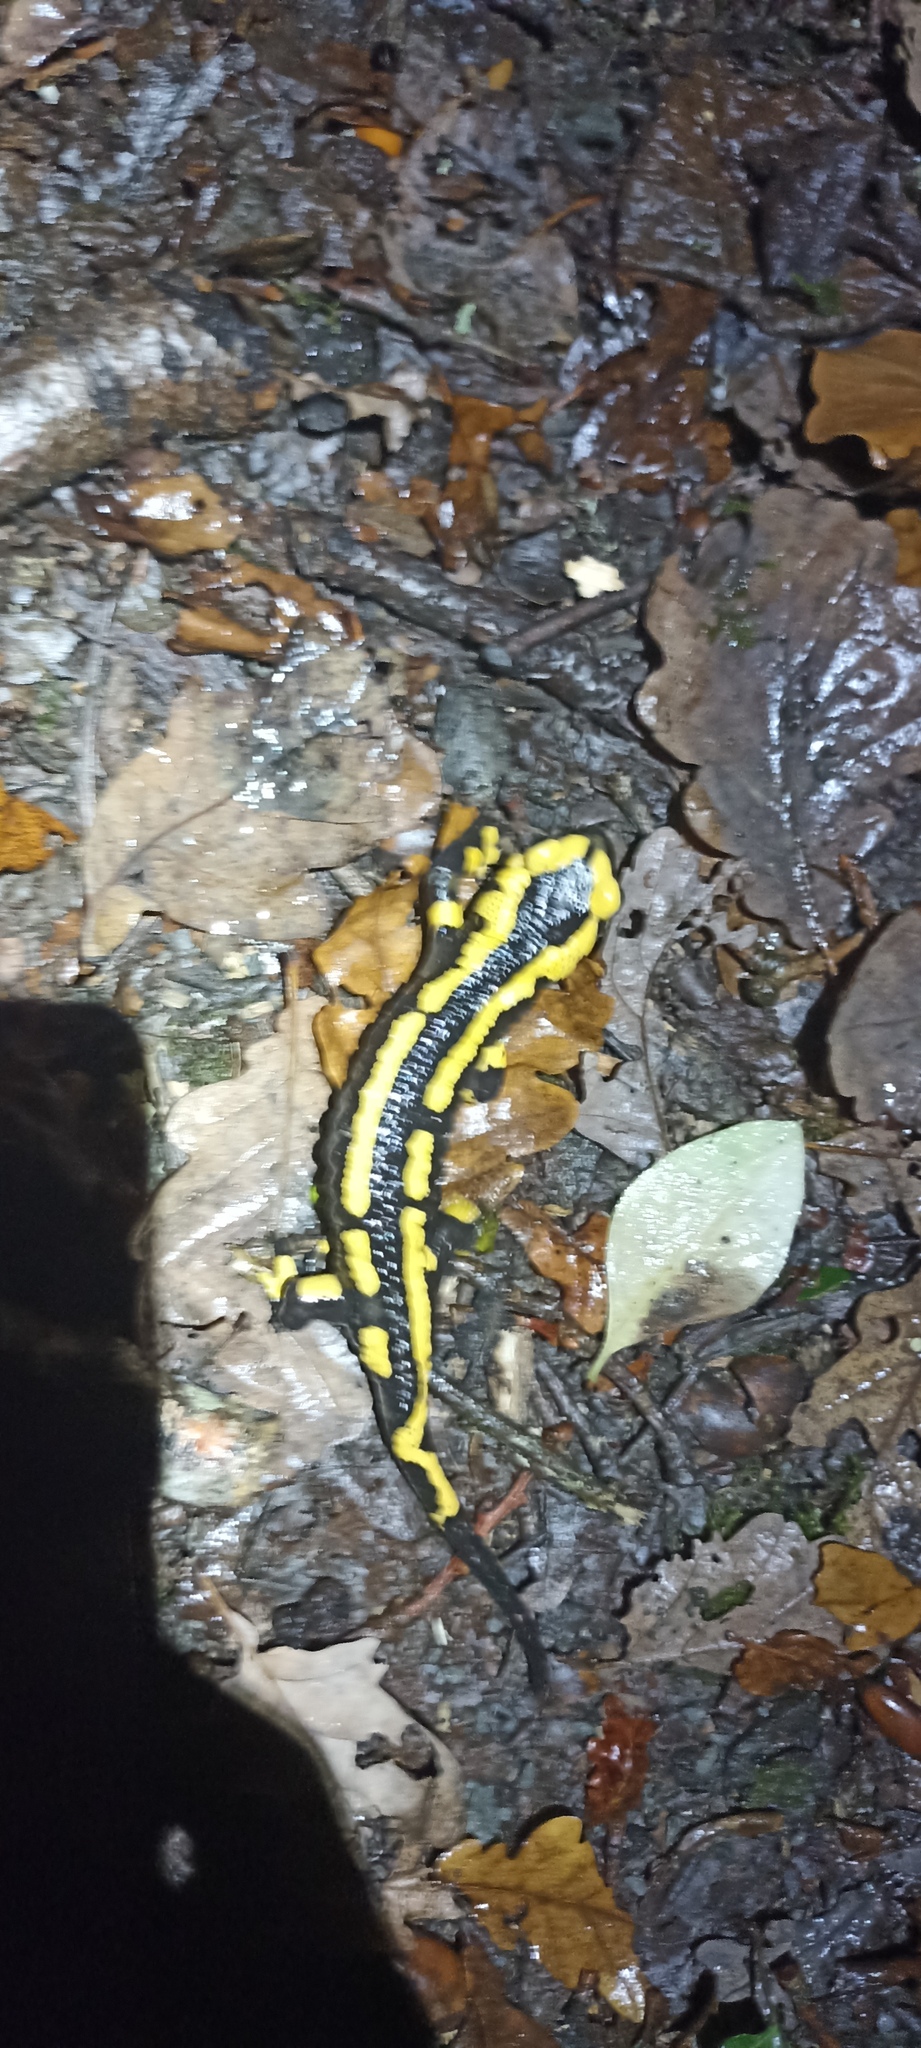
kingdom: Animalia
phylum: Chordata
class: Amphibia
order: Caudata
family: Salamandridae
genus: Salamandra
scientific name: Salamandra salamandra
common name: Fire salamander
